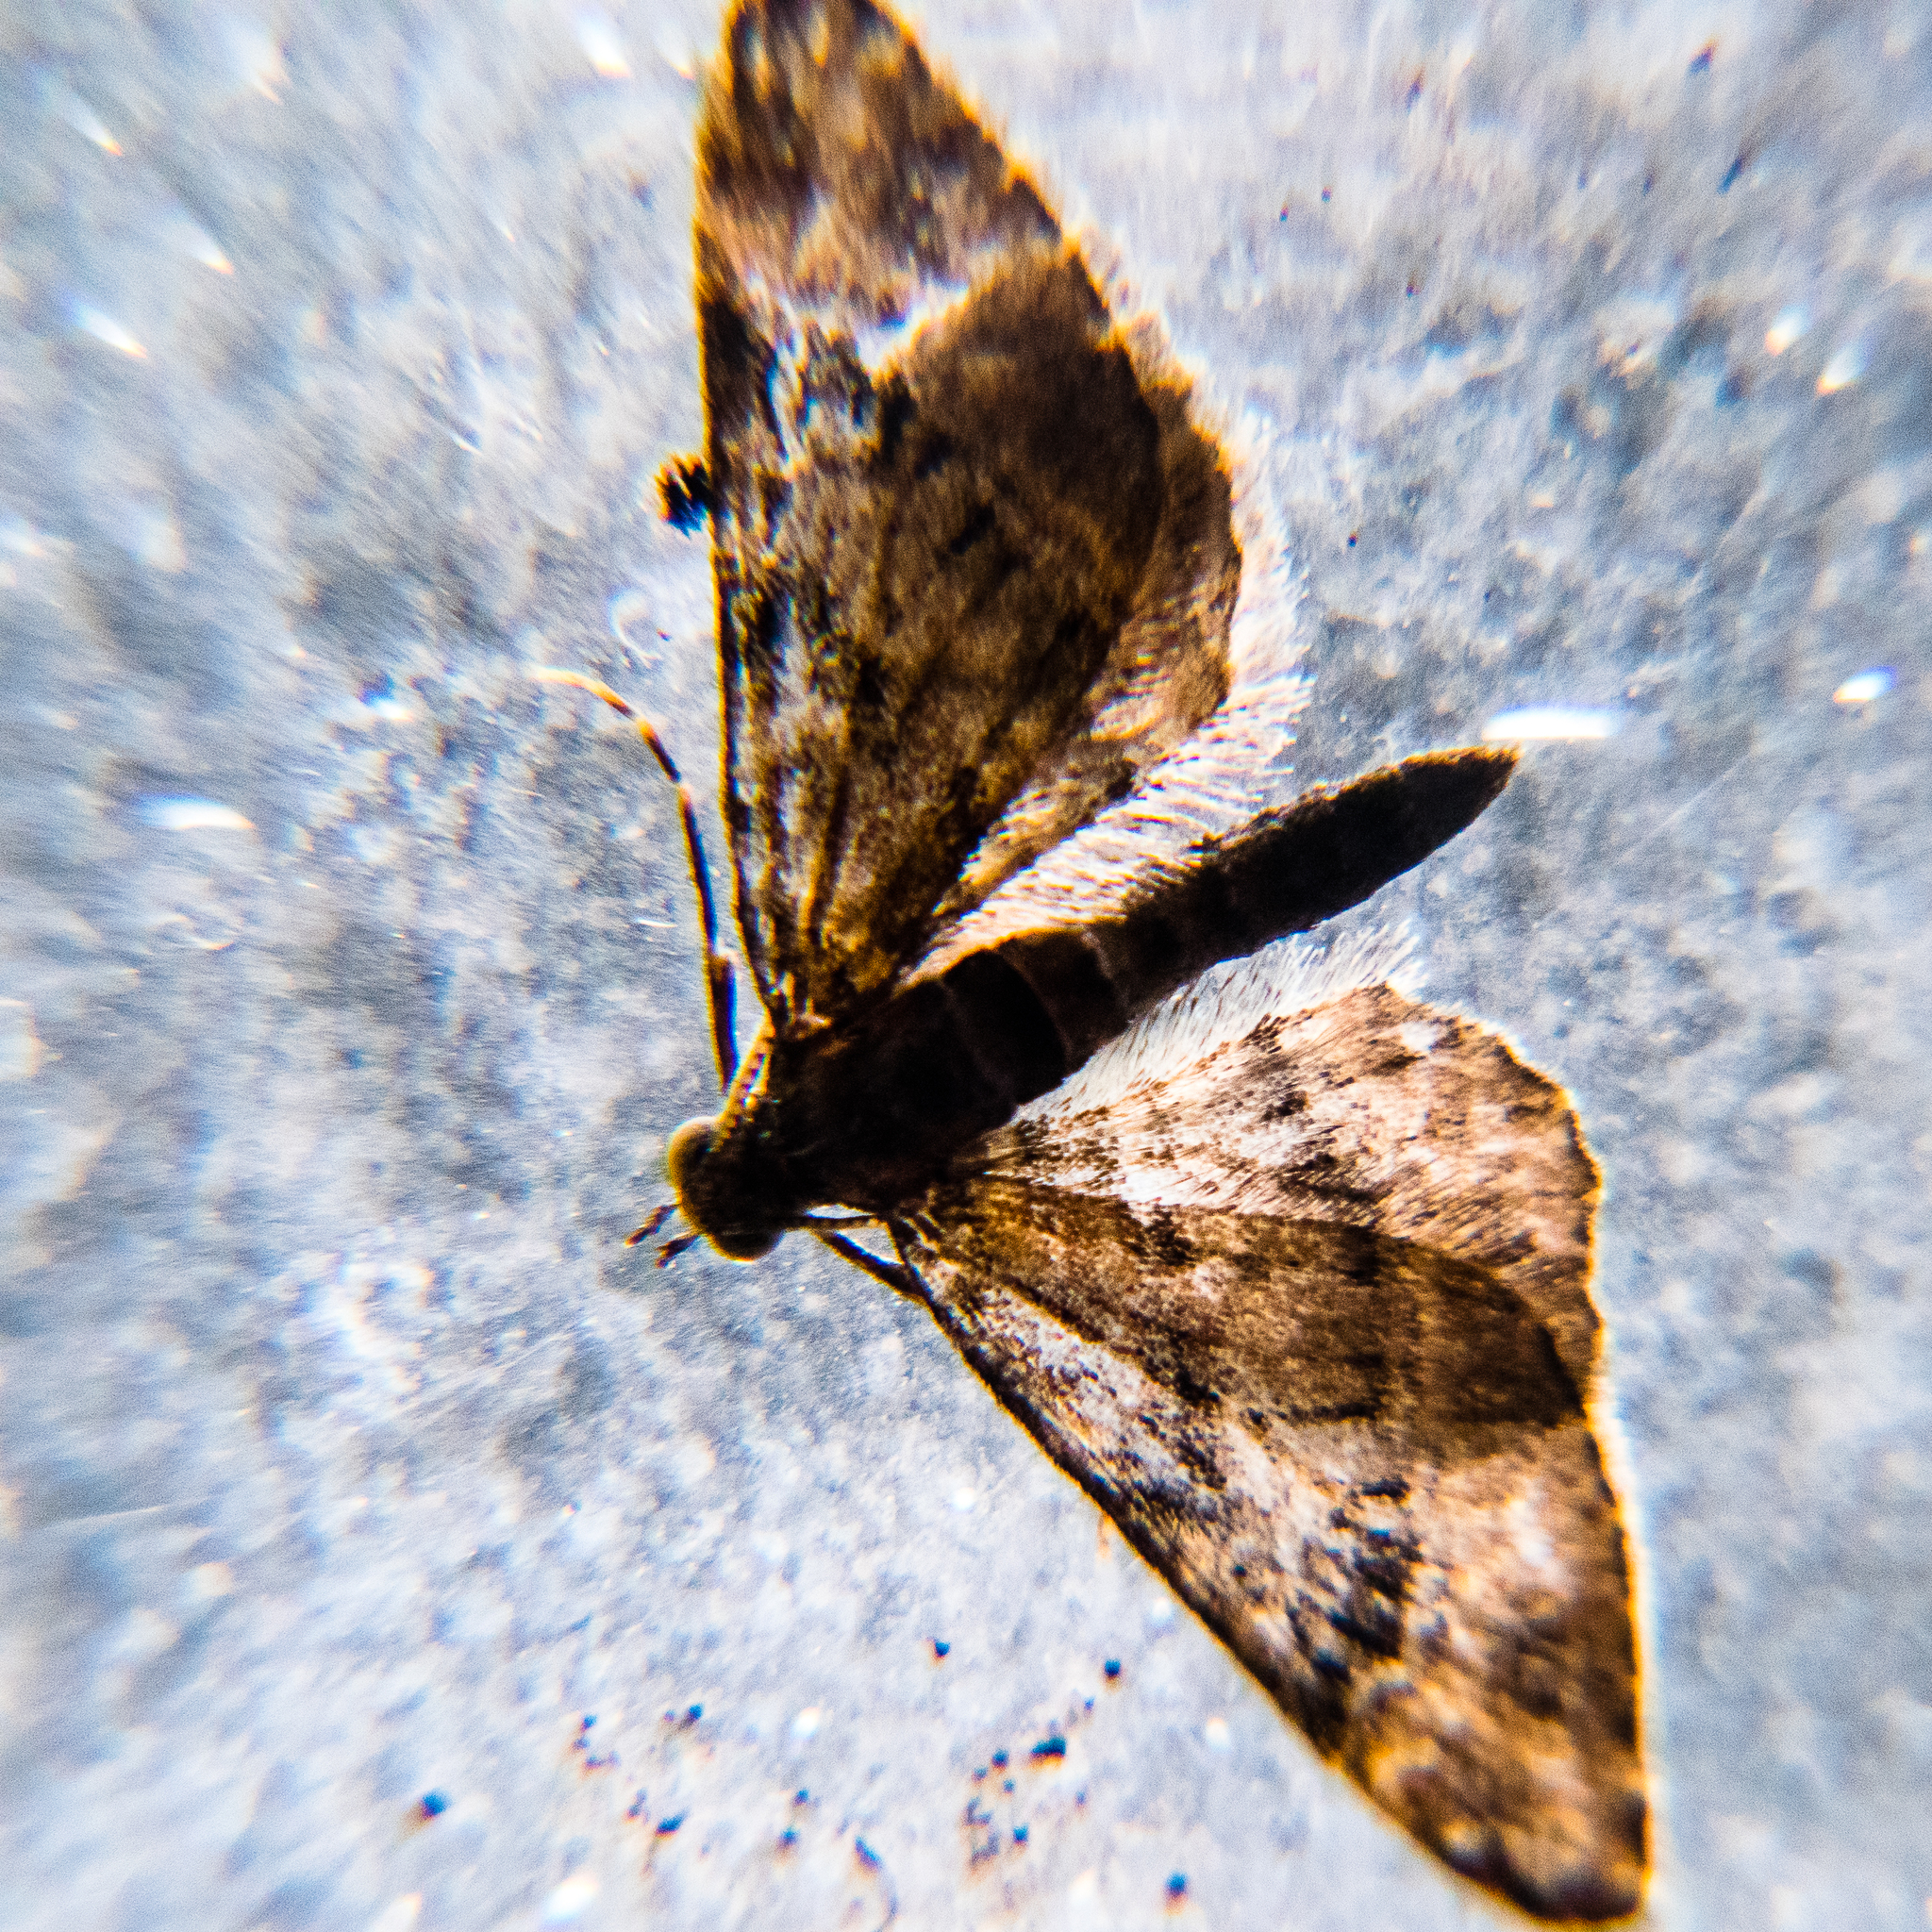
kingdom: Animalia
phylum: Arthropoda
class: Insecta
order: Lepidoptera
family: Geometridae
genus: Gymnoscelis
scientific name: Gymnoscelis rufifasciata
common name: Double-striped pug
